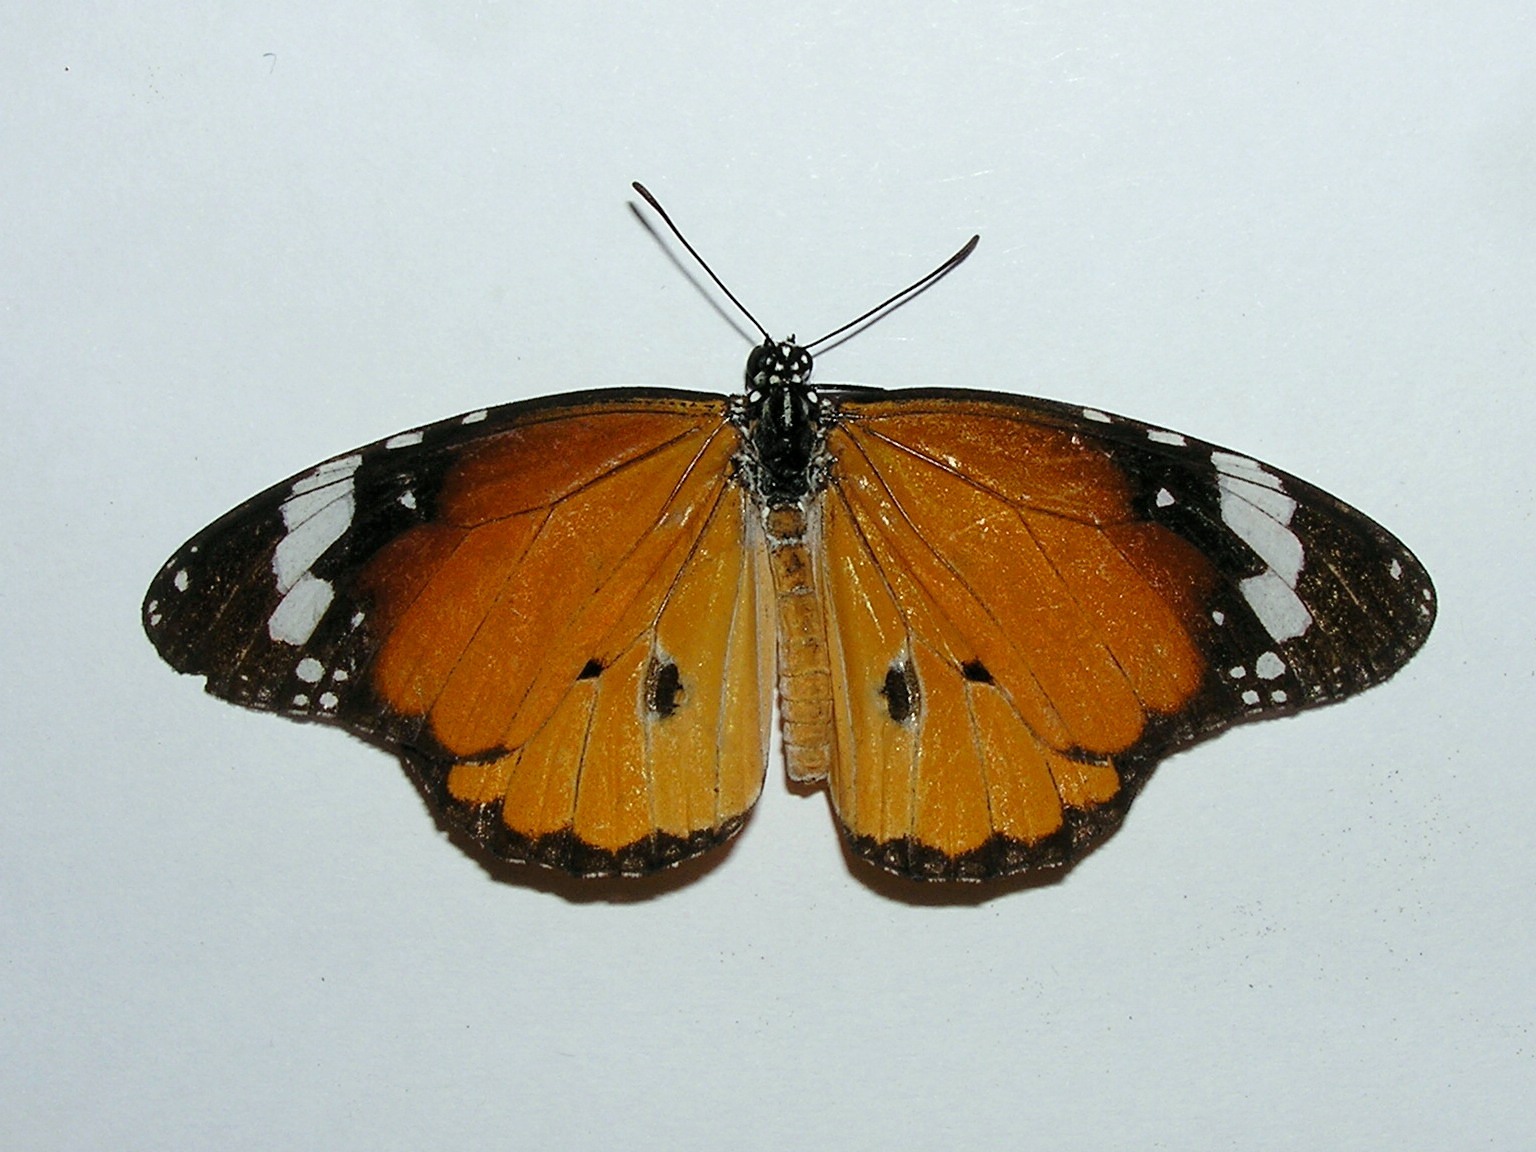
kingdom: Animalia
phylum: Arthropoda
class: Insecta
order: Lepidoptera
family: Nymphalidae
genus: Danaus
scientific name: Danaus chrysippus
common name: Plain tiger
